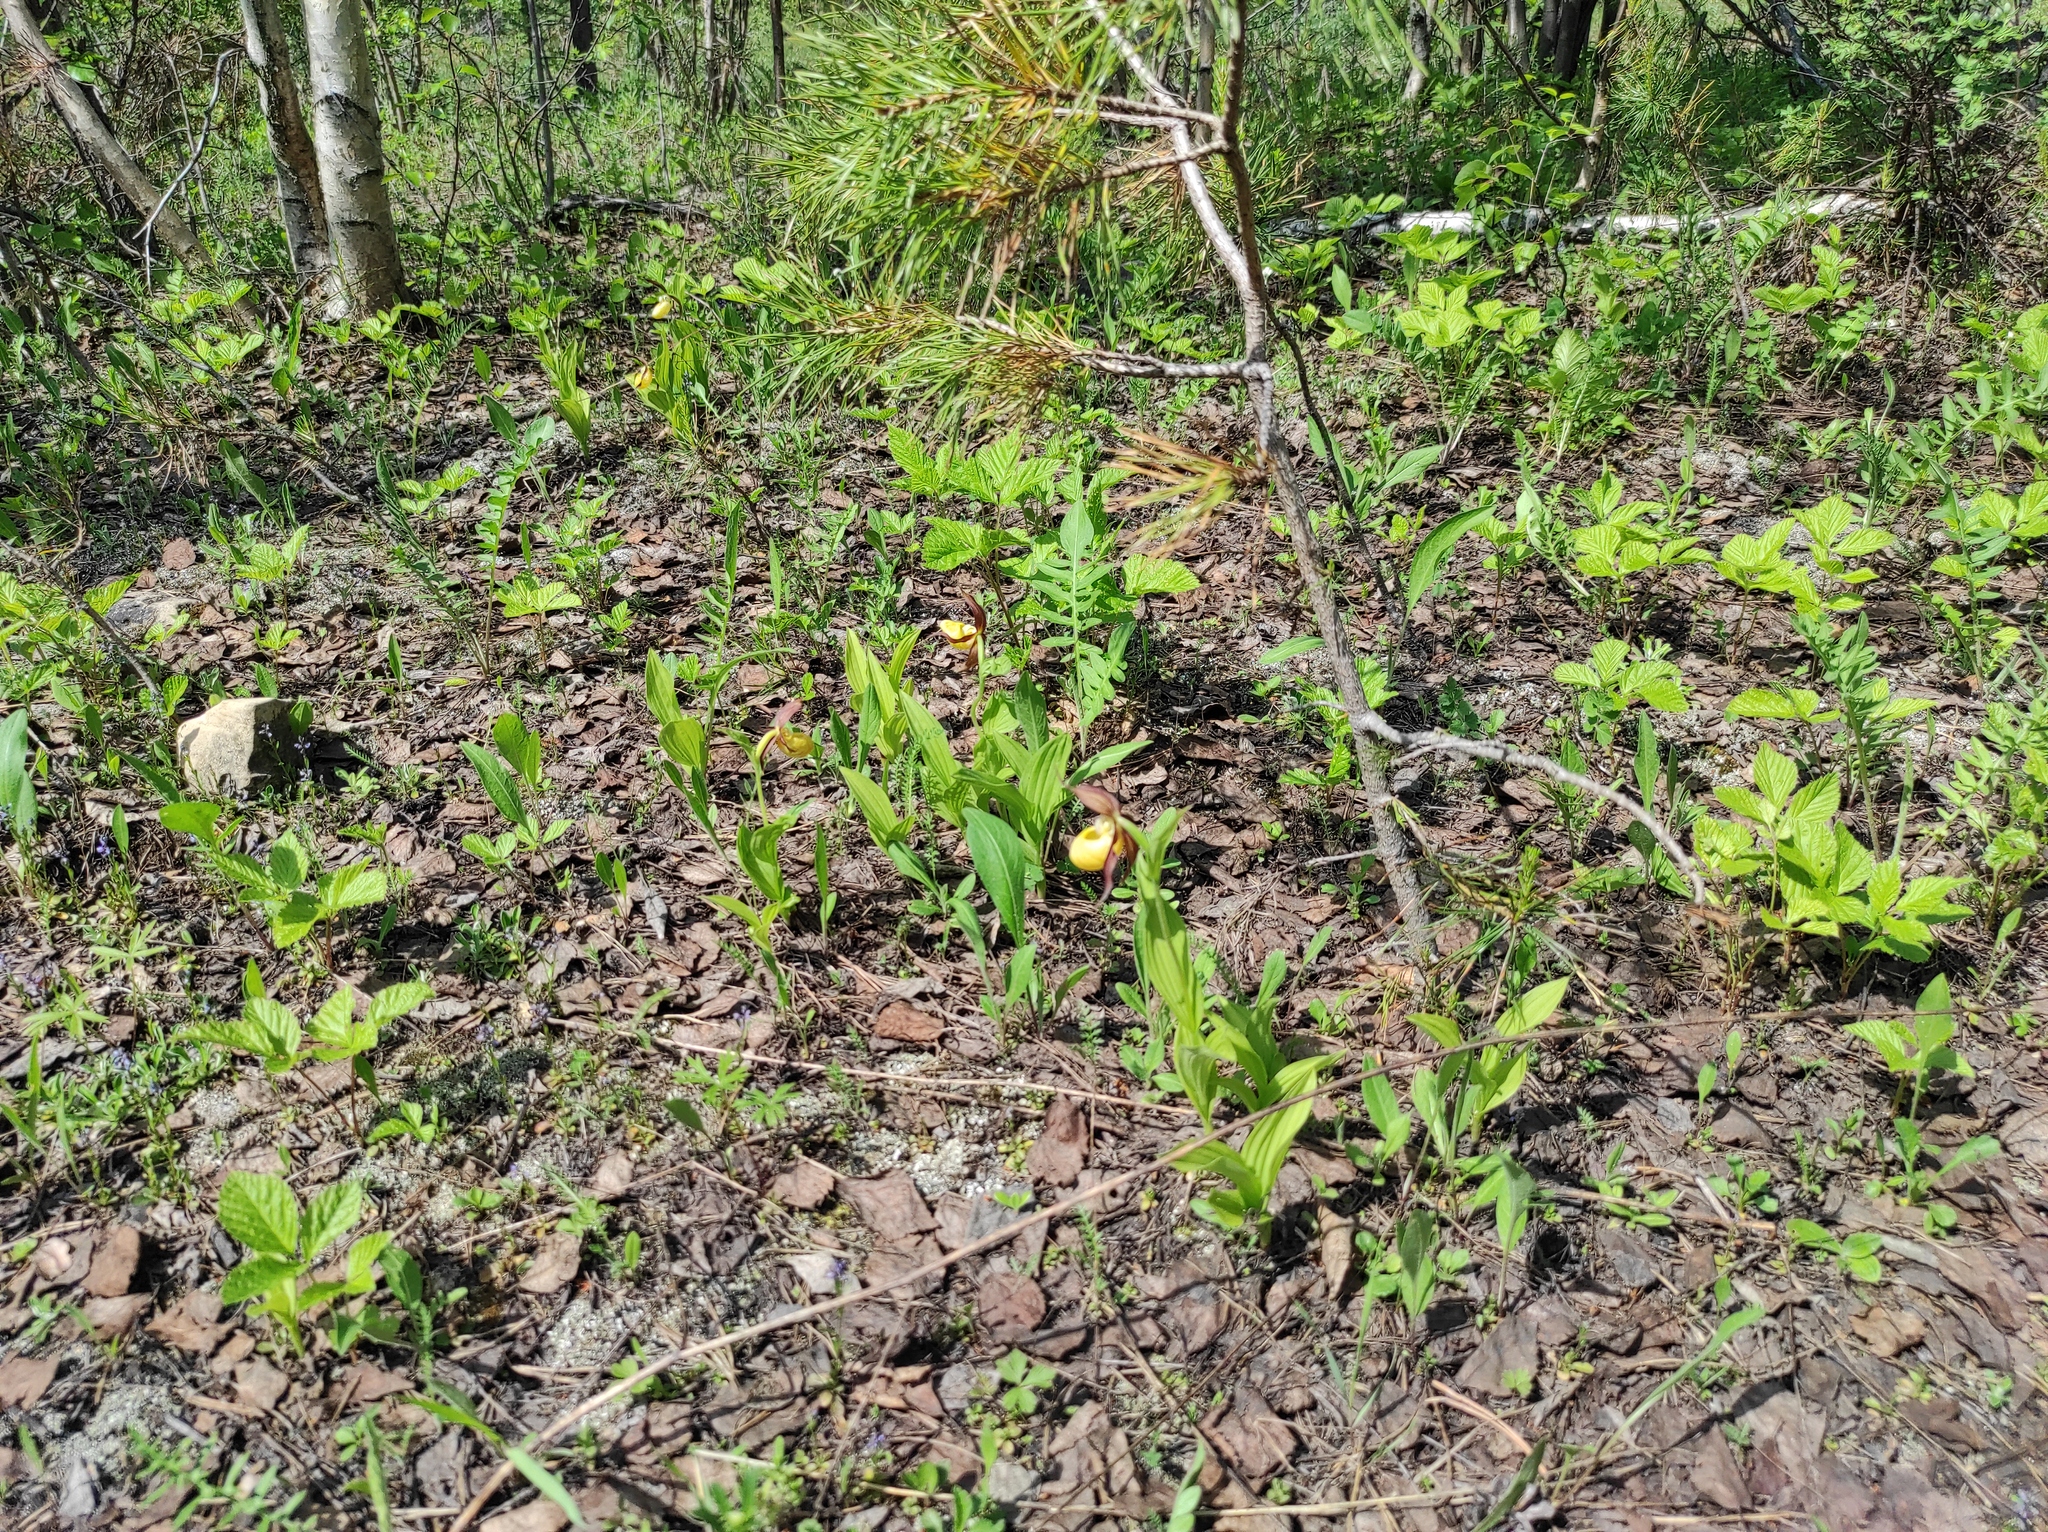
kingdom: Plantae
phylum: Tracheophyta
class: Liliopsida
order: Asparagales
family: Orchidaceae
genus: Cypripedium
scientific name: Cypripedium calceolus
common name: Lady's-slipper
